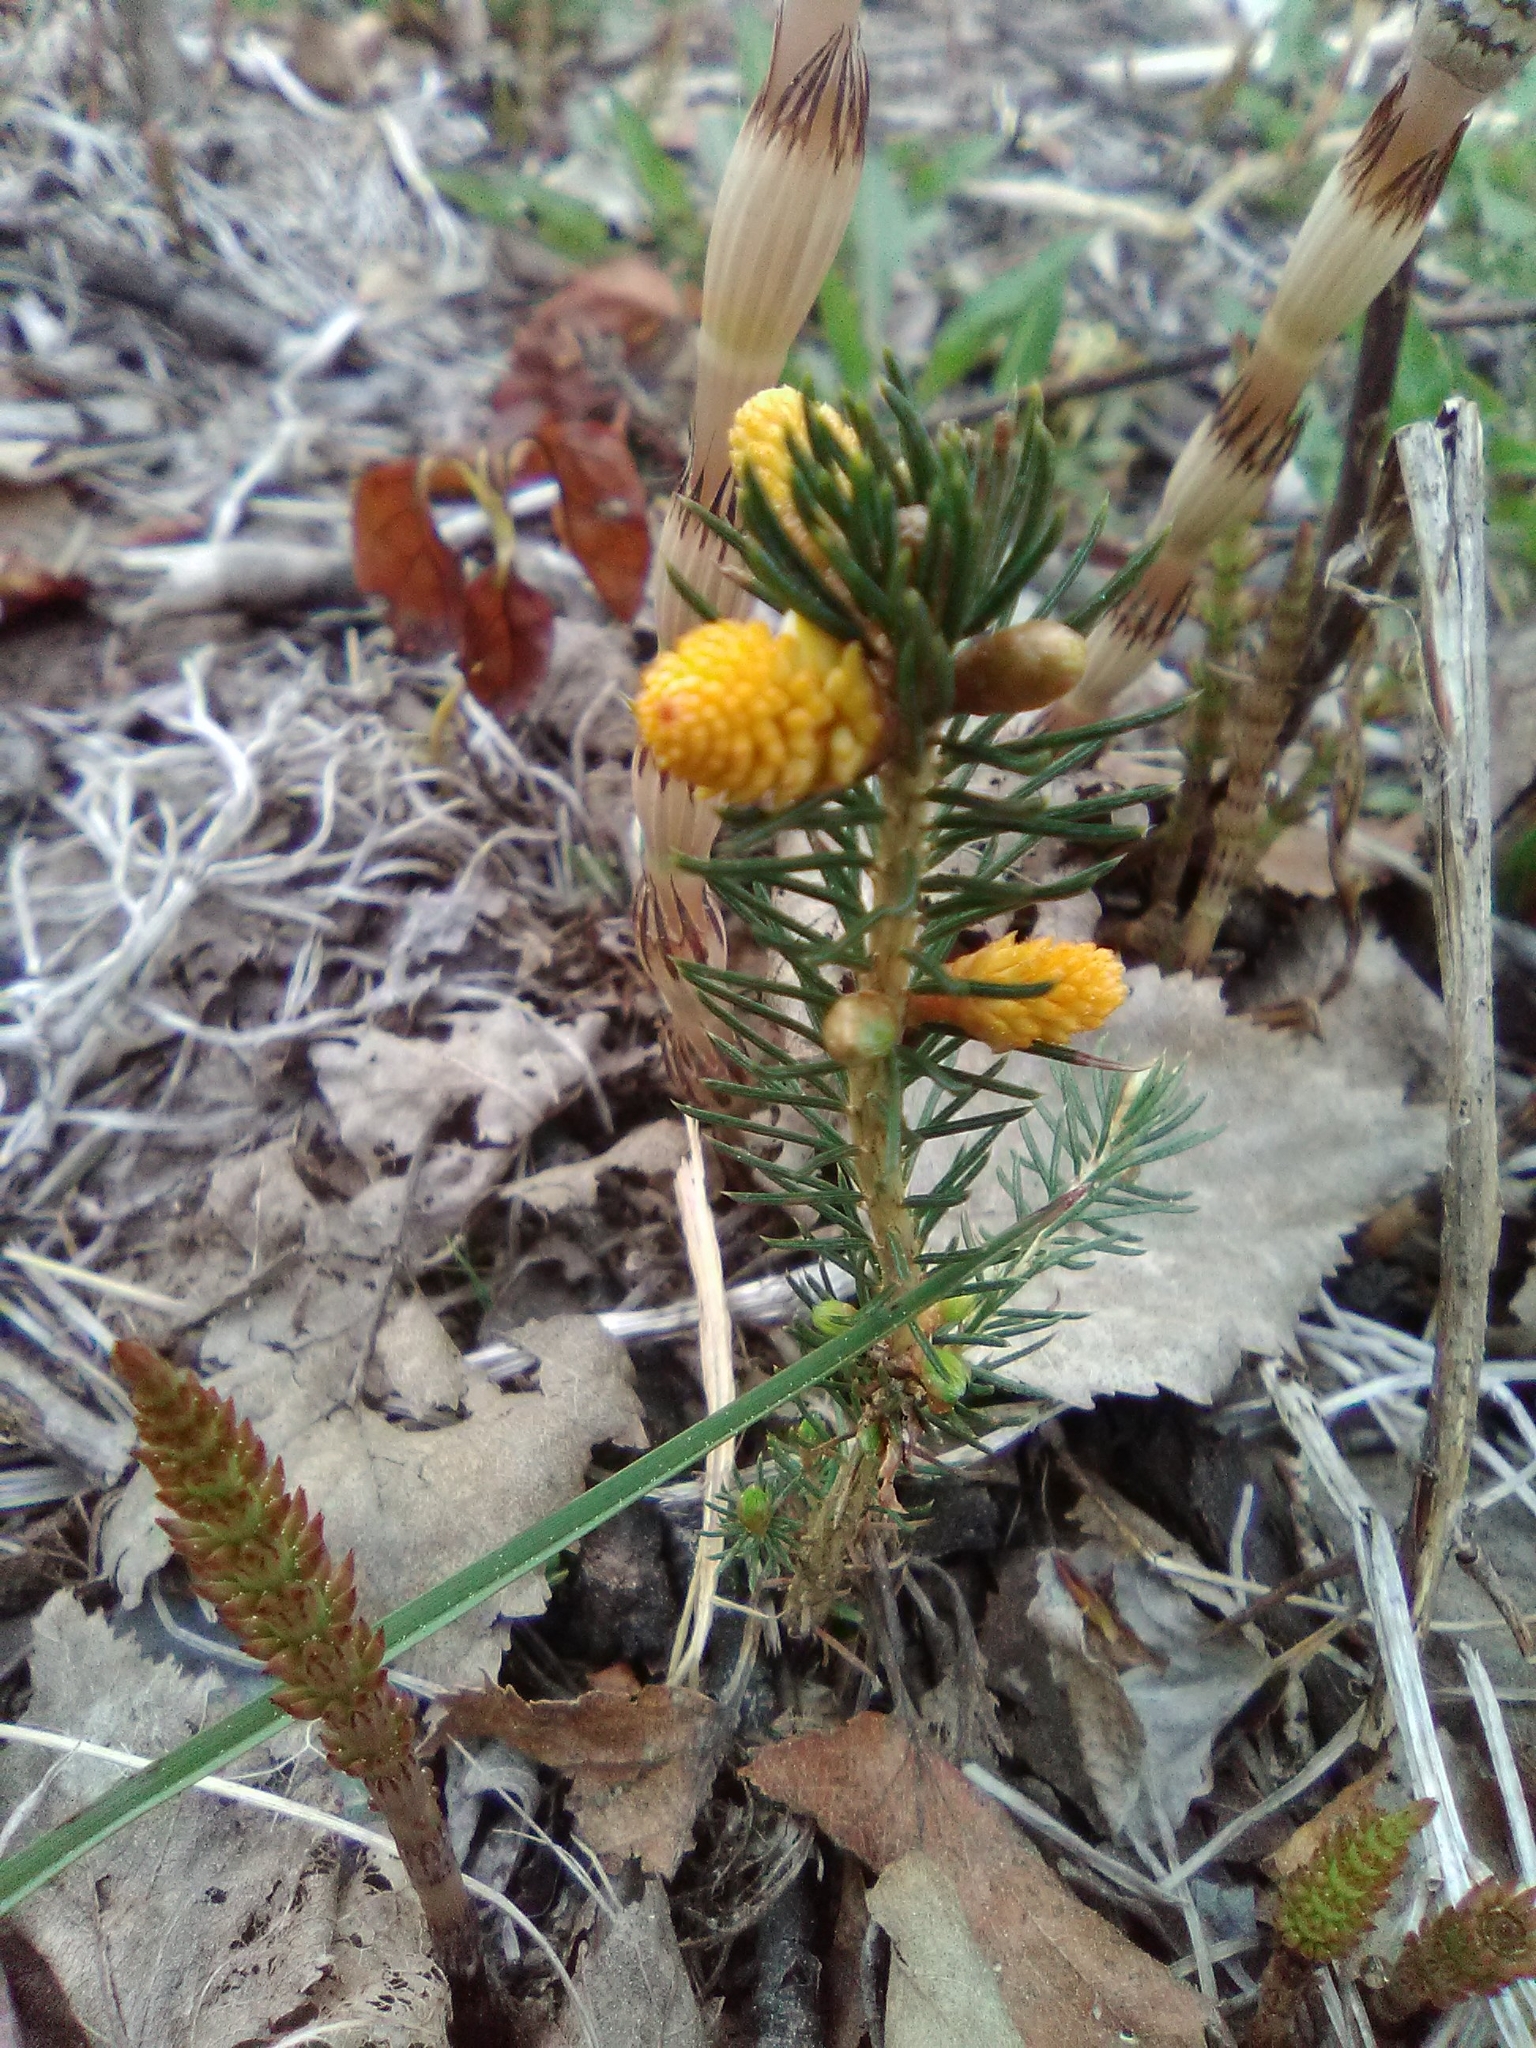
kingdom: Fungi
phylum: Basidiomycota
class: Pucciniomycetes
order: Pucciniales
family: Coleosporiaceae
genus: Chrysomyxa
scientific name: Chrysomyxa woroninii
